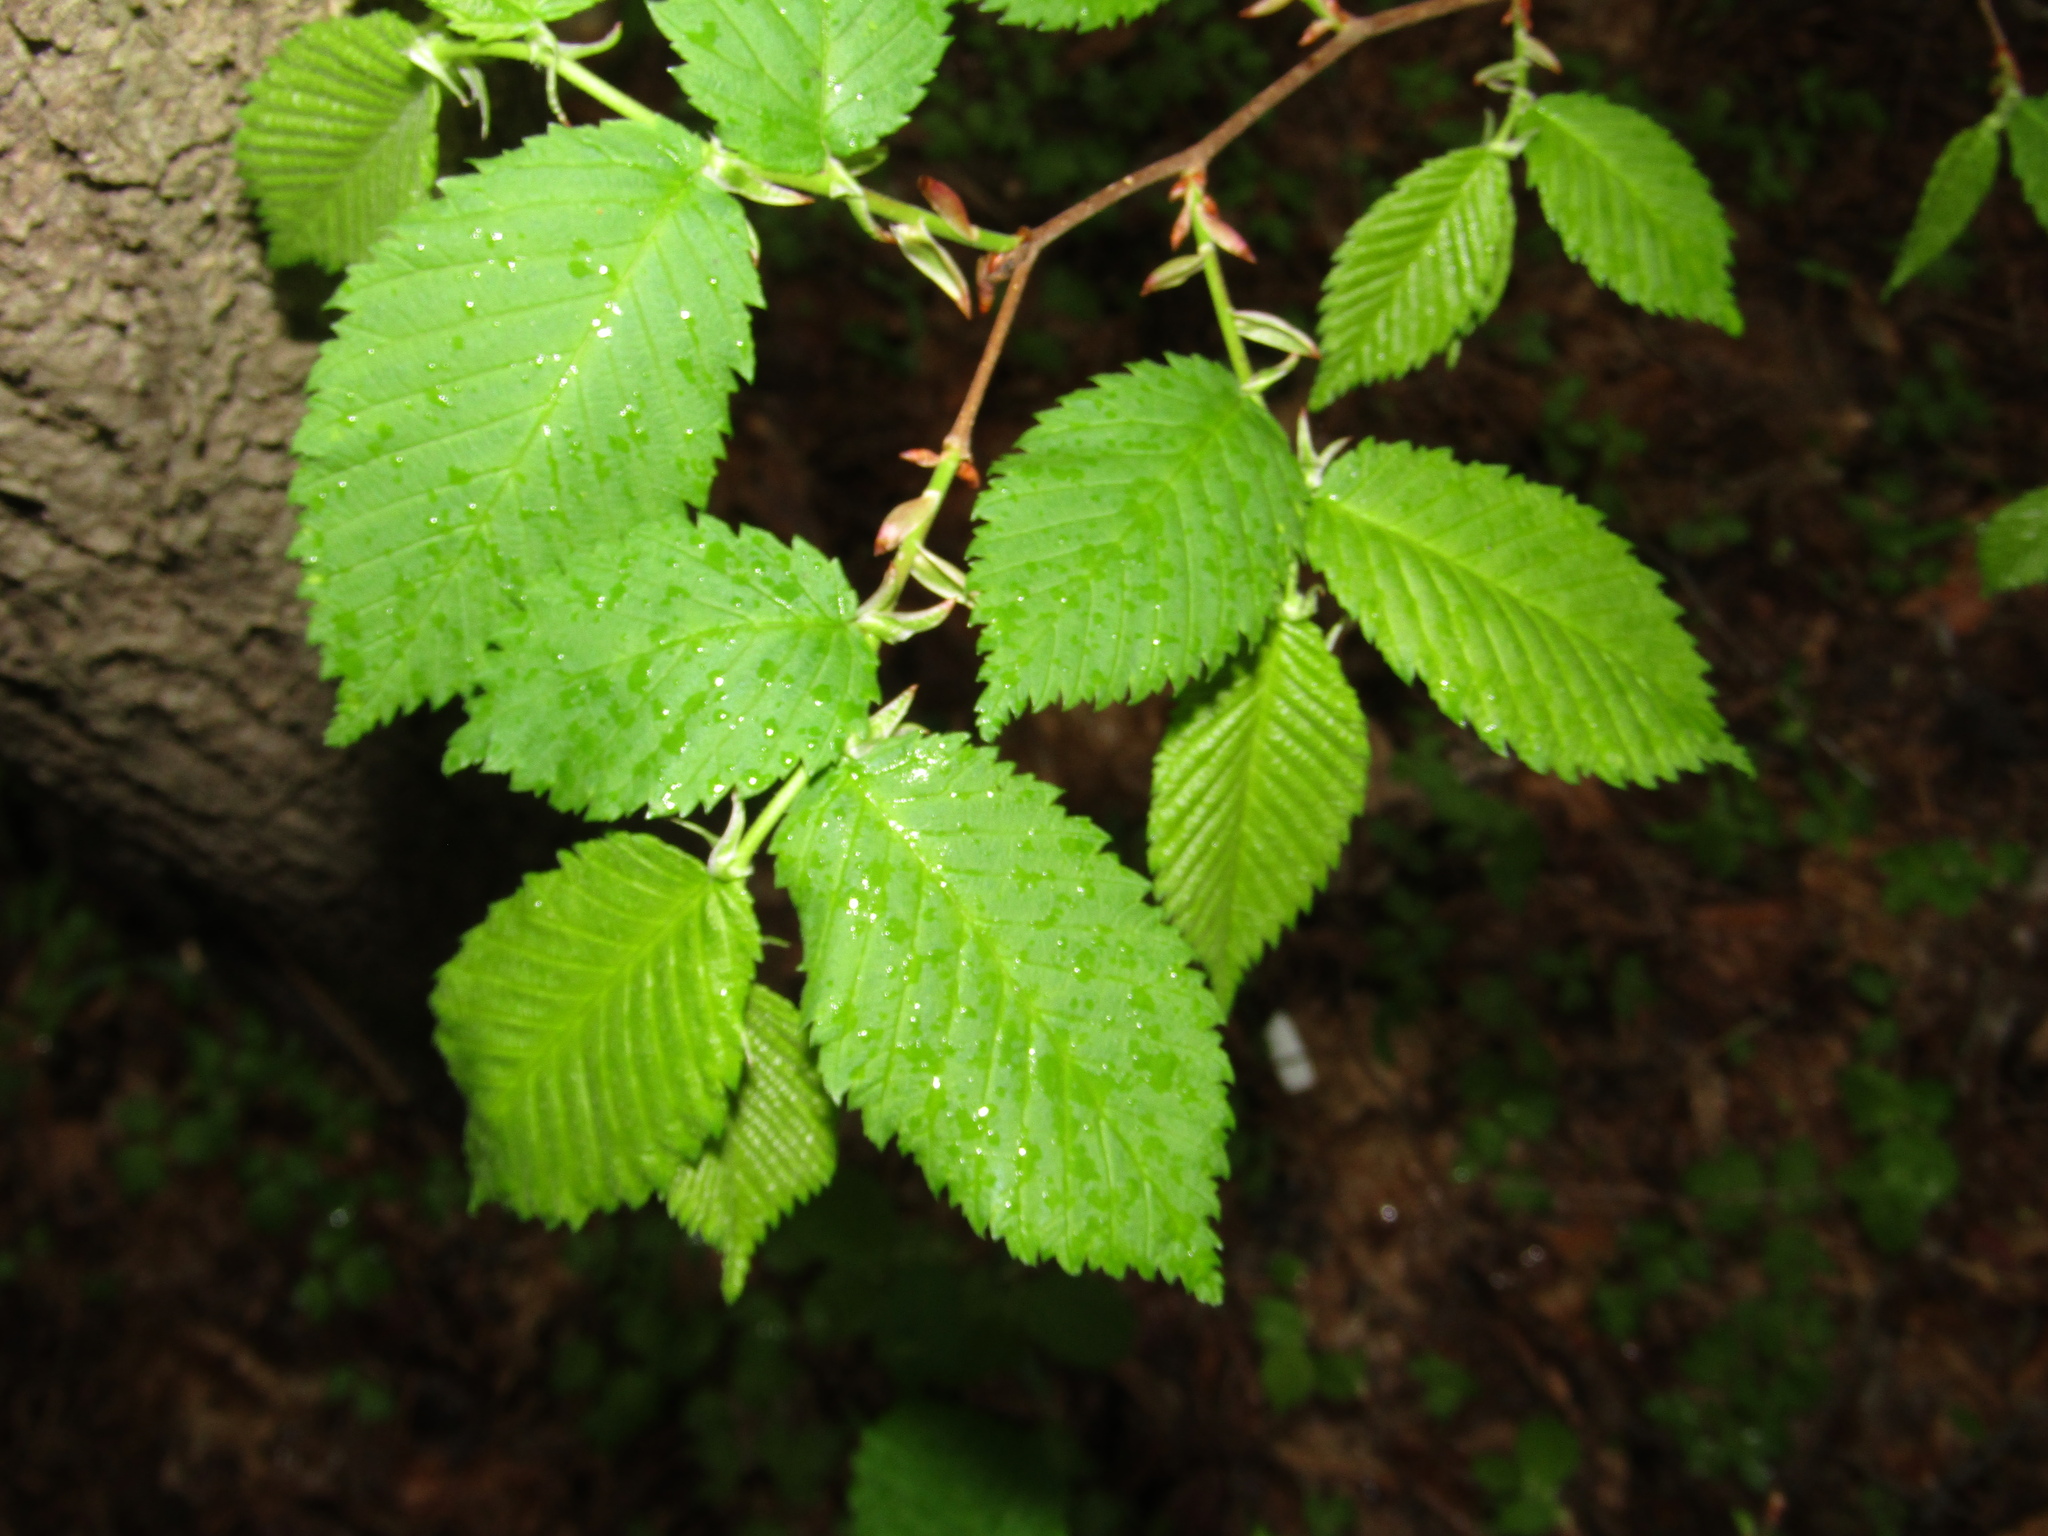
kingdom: Plantae
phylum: Tracheophyta
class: Magnoliopsida
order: Rosales
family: Ulmaceae
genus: Ulmus
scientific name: Ulmus laevis
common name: European white-elm
